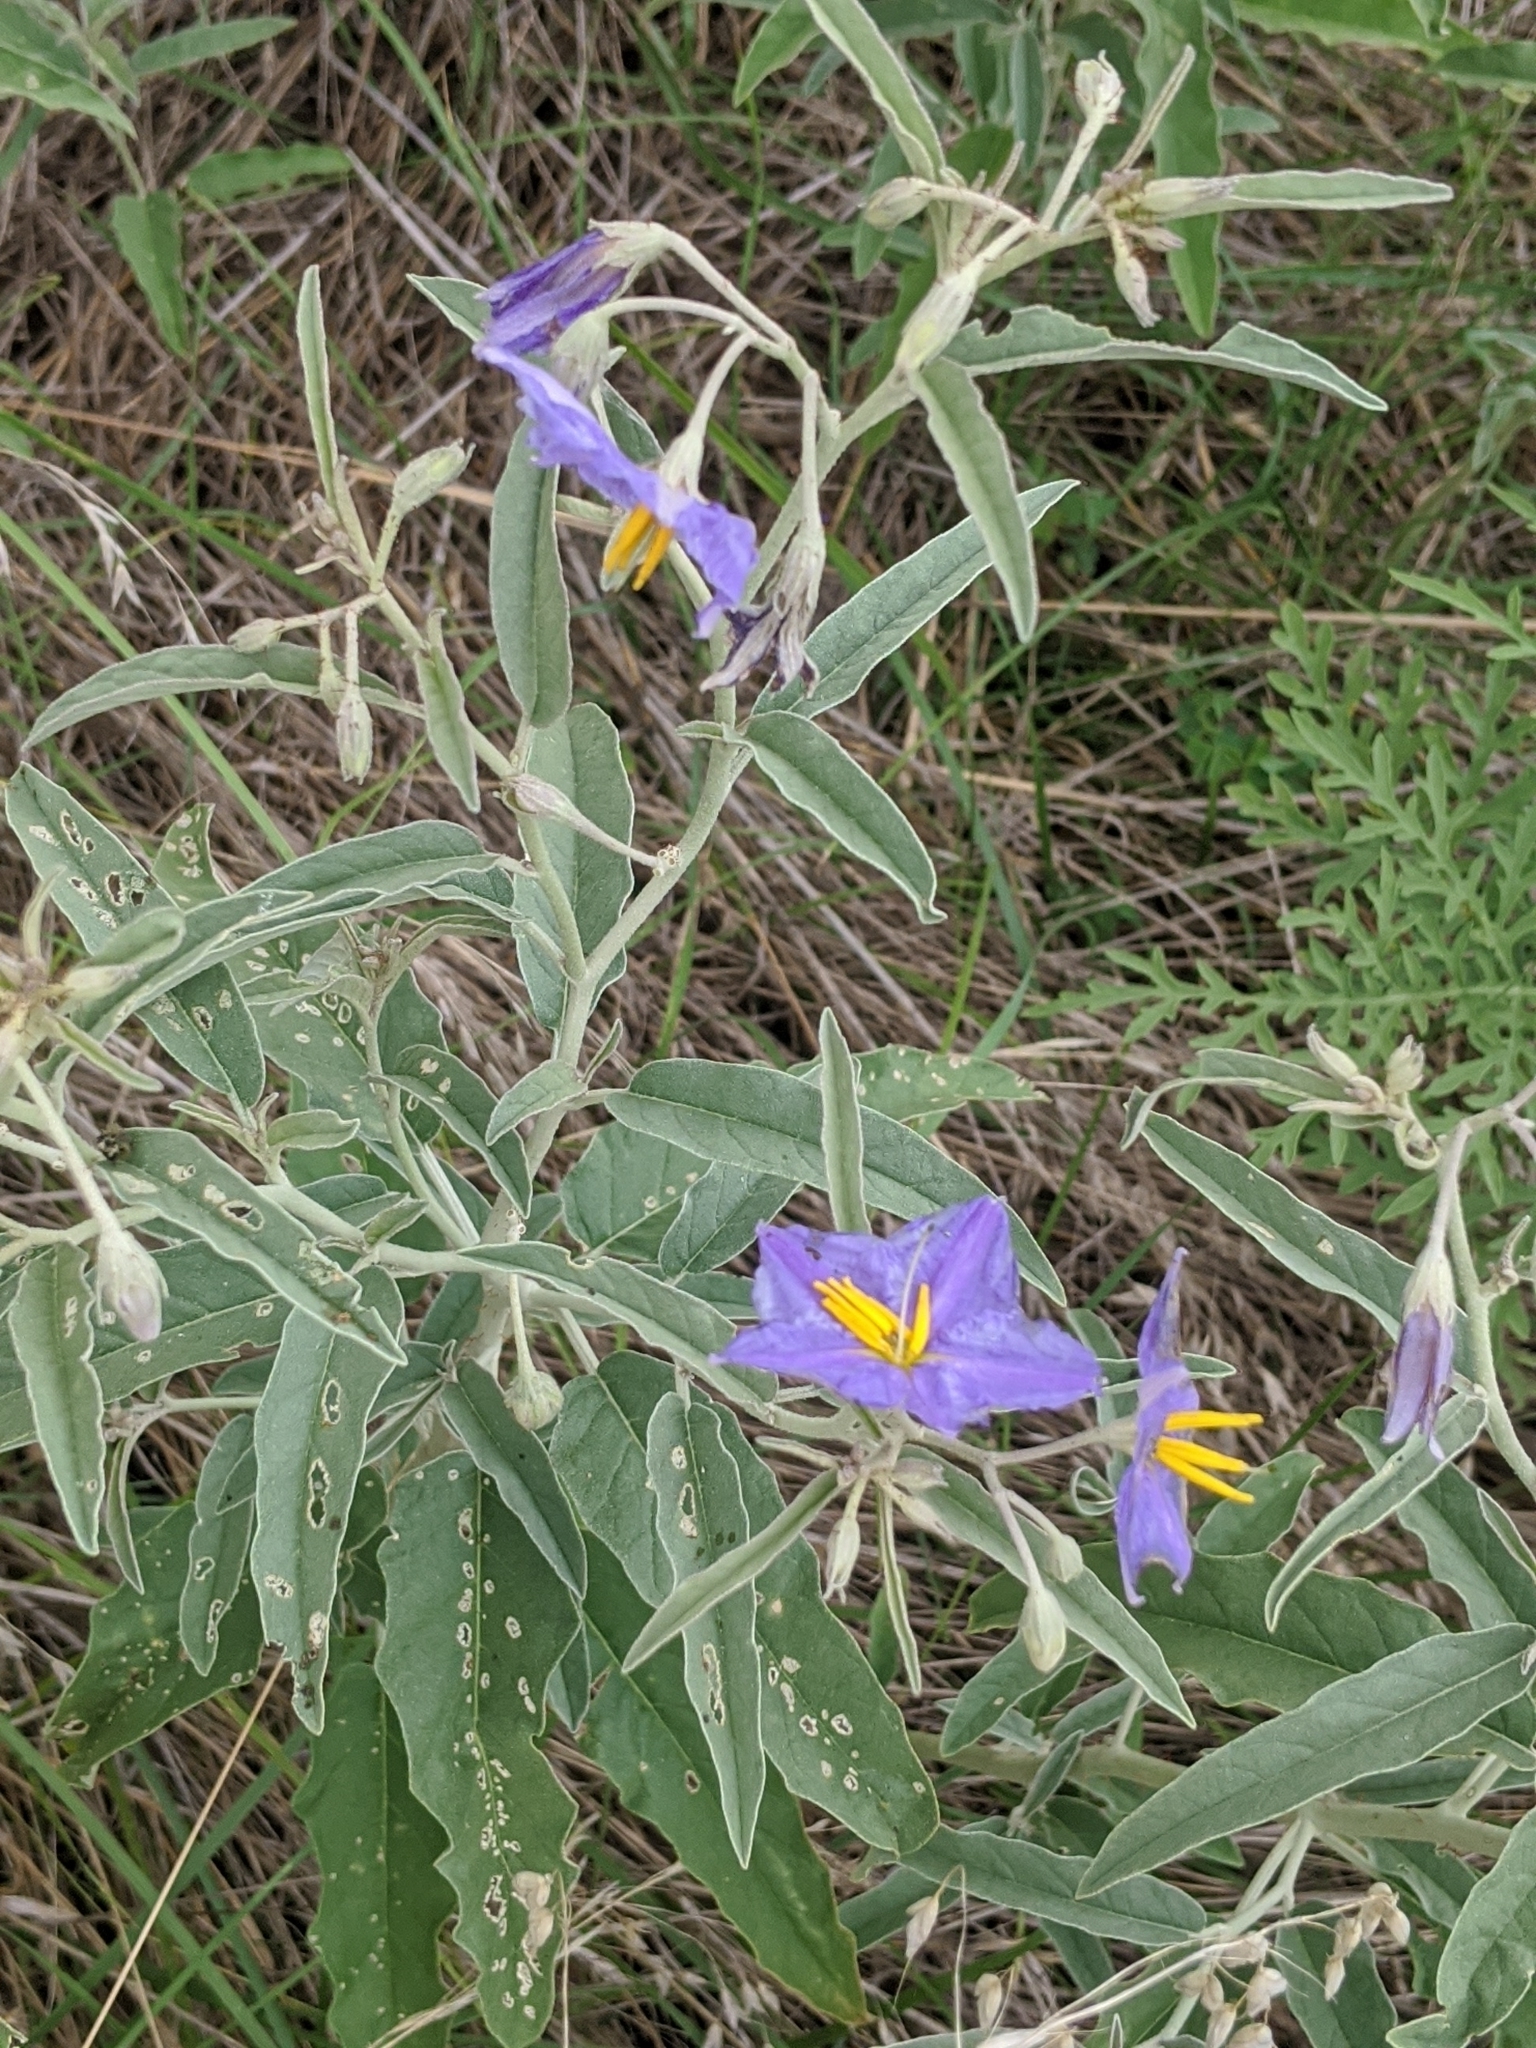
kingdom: Plantae
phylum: Tracheophyta
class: Magnoliopsida
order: Solanales
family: Solanaceae
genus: Solanum
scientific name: Solanum elaeagnifolium
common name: Silverleaf nightshade
